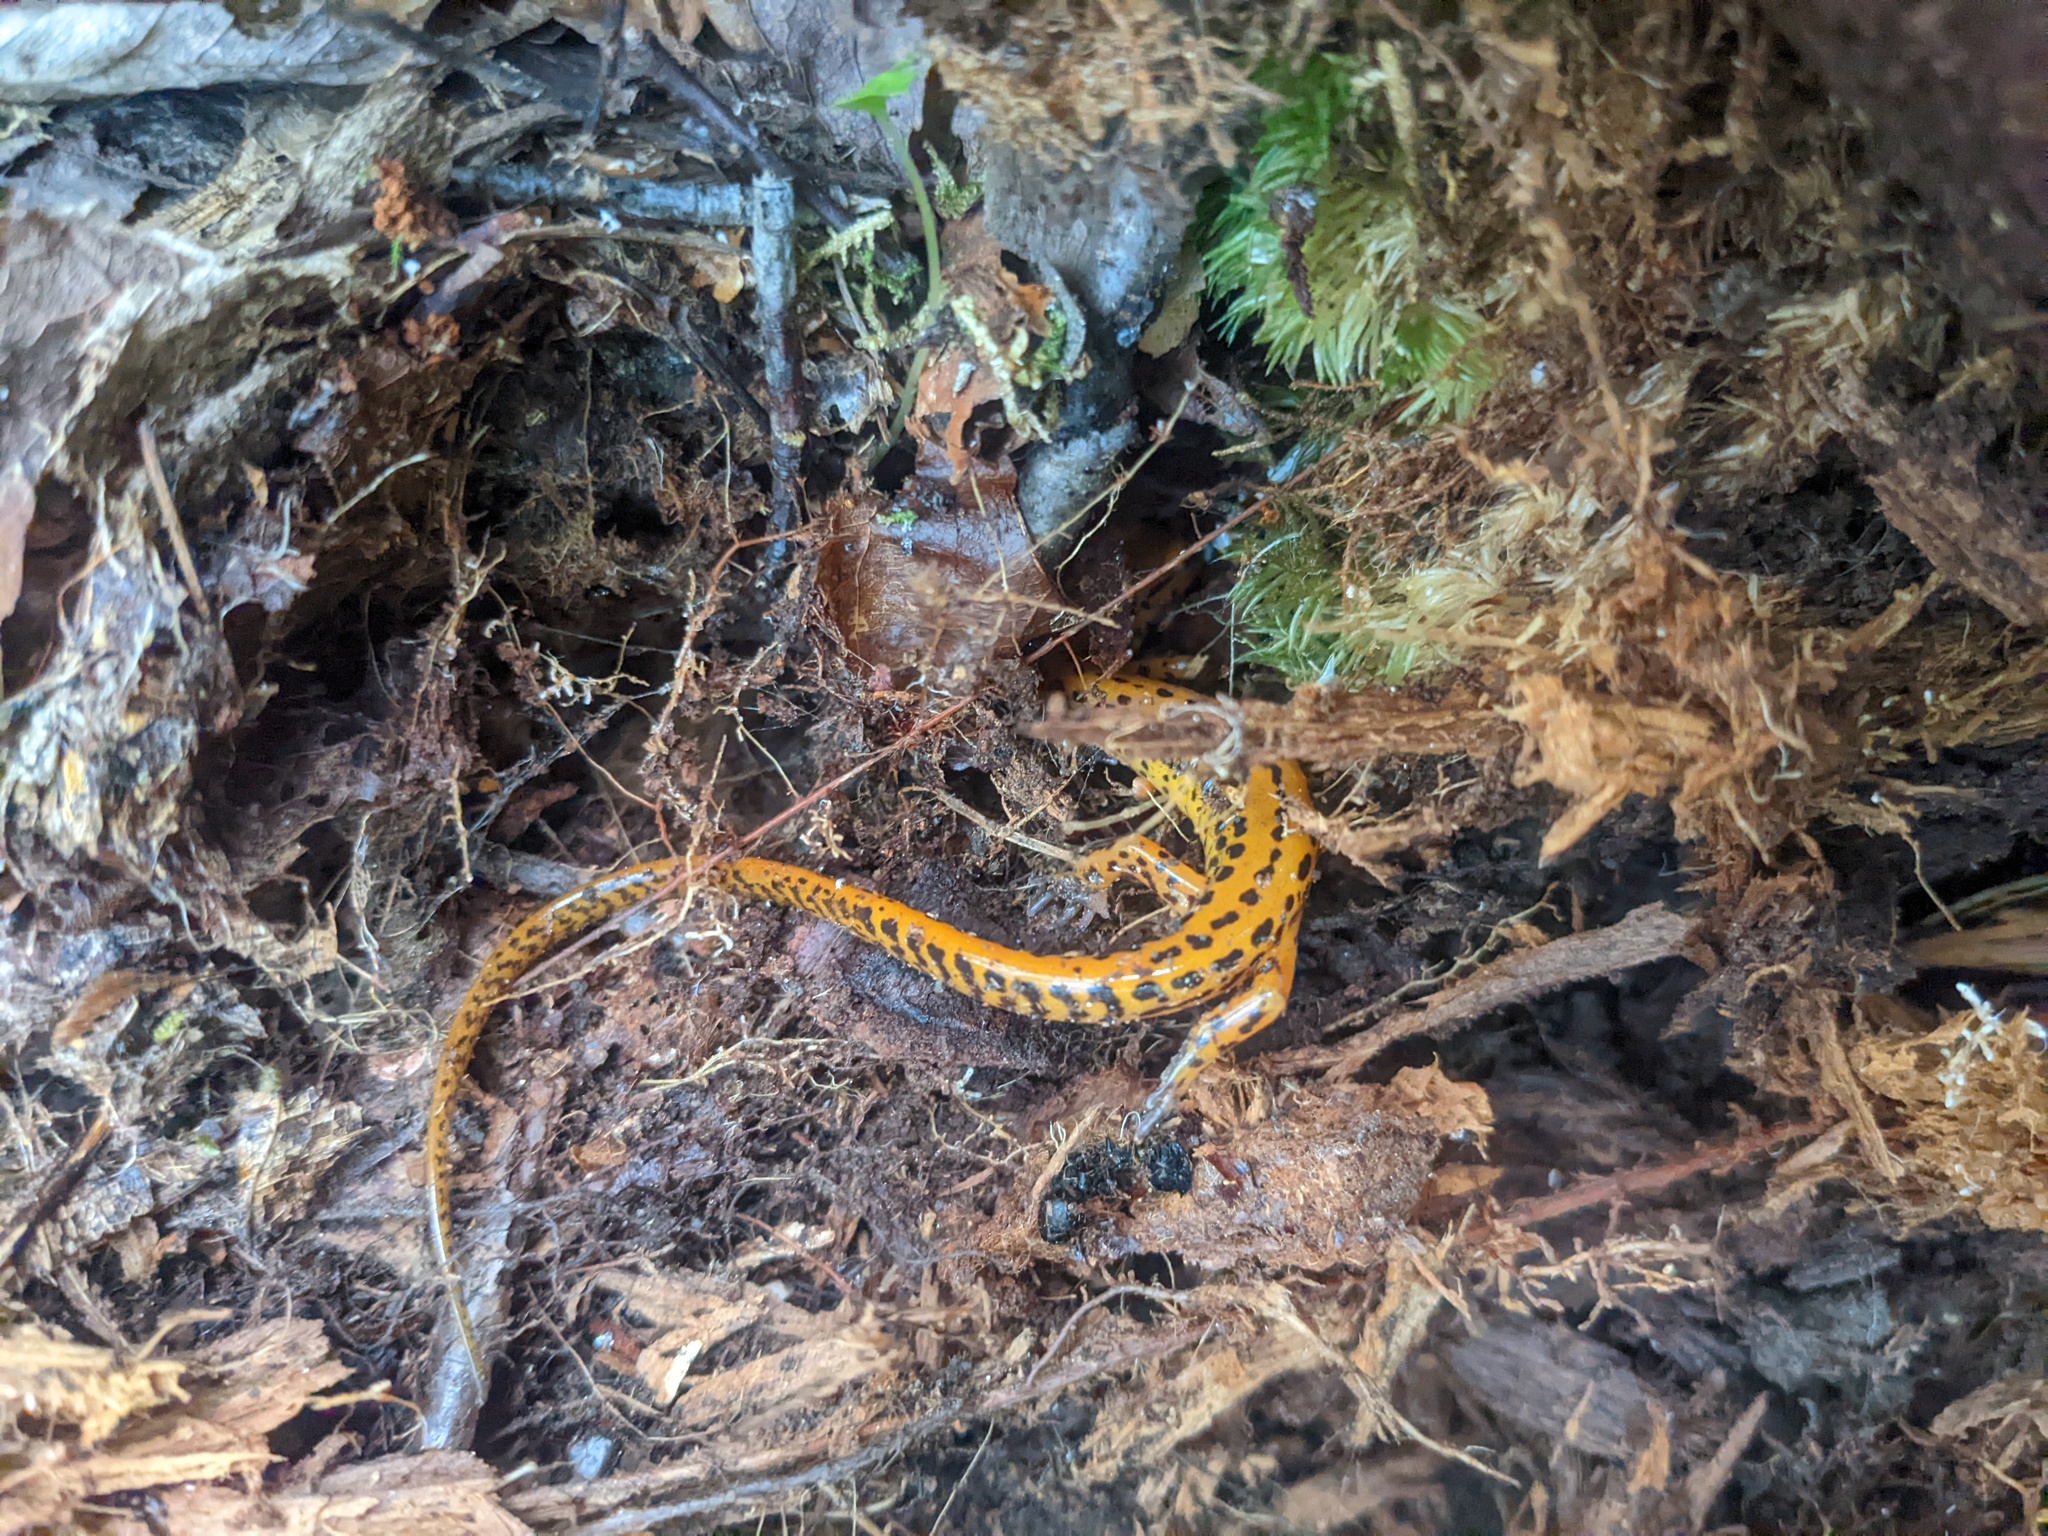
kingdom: Animalia
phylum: Chordata
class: Amphibia
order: Caudata
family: Plethodontidae
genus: Eurycea
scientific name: Eurycea longicauda
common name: Long-tailed salamander
